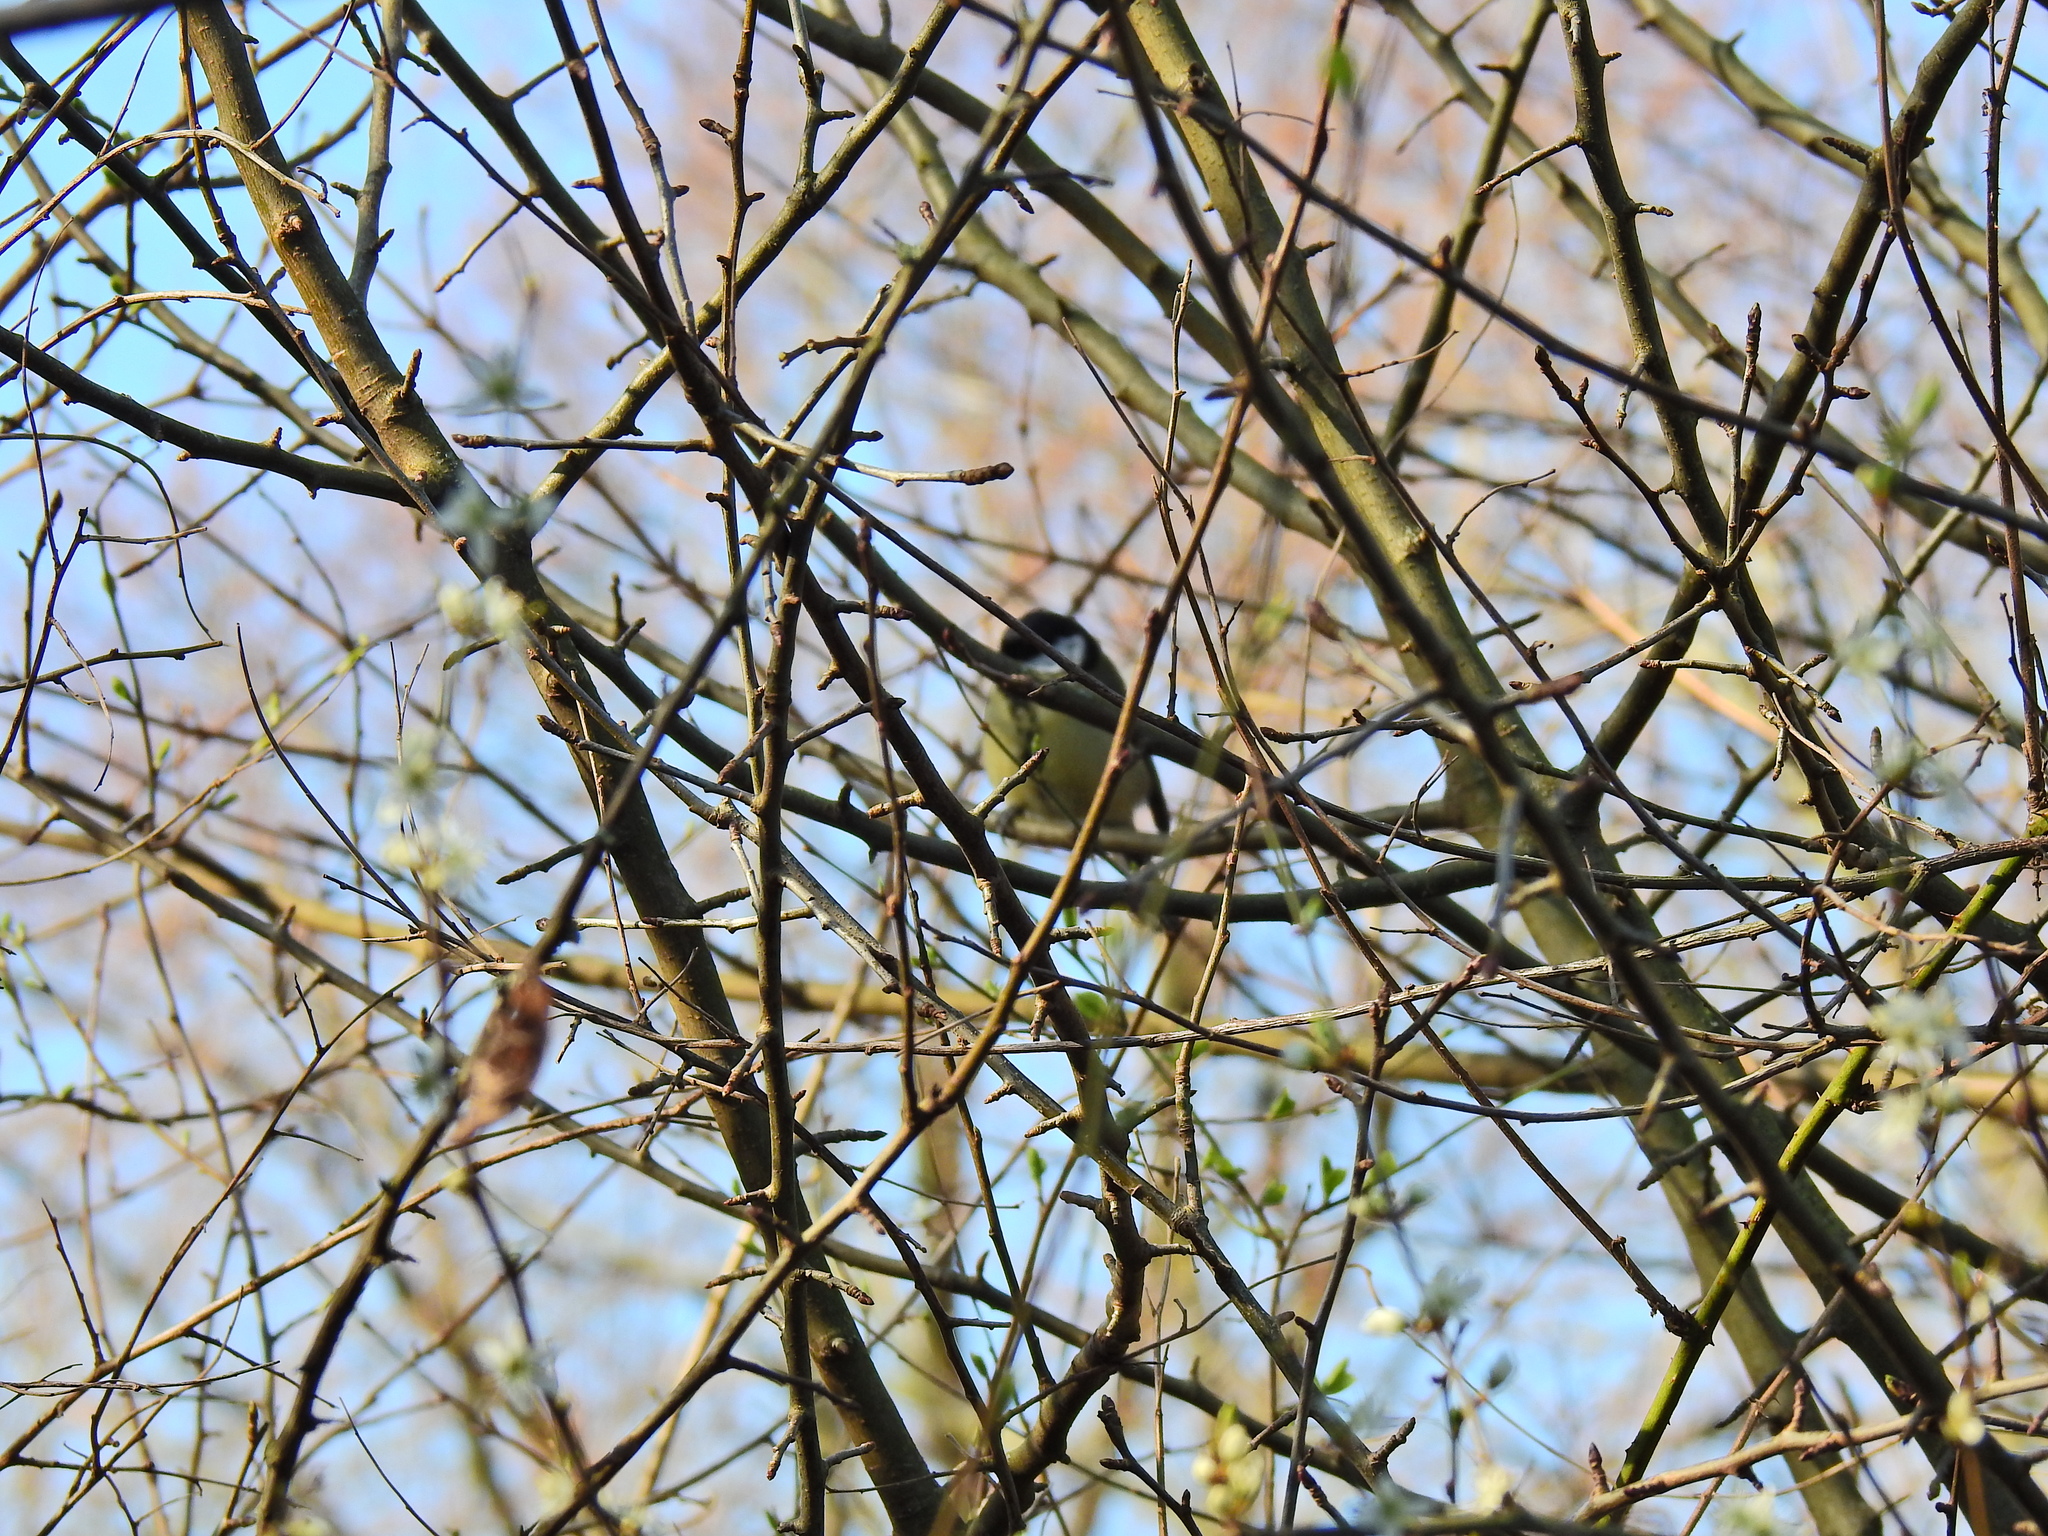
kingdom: Animalia
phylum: Chordata
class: Aves
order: Passeriformes
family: Paridae
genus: Parus
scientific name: Parus major
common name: Great tit
